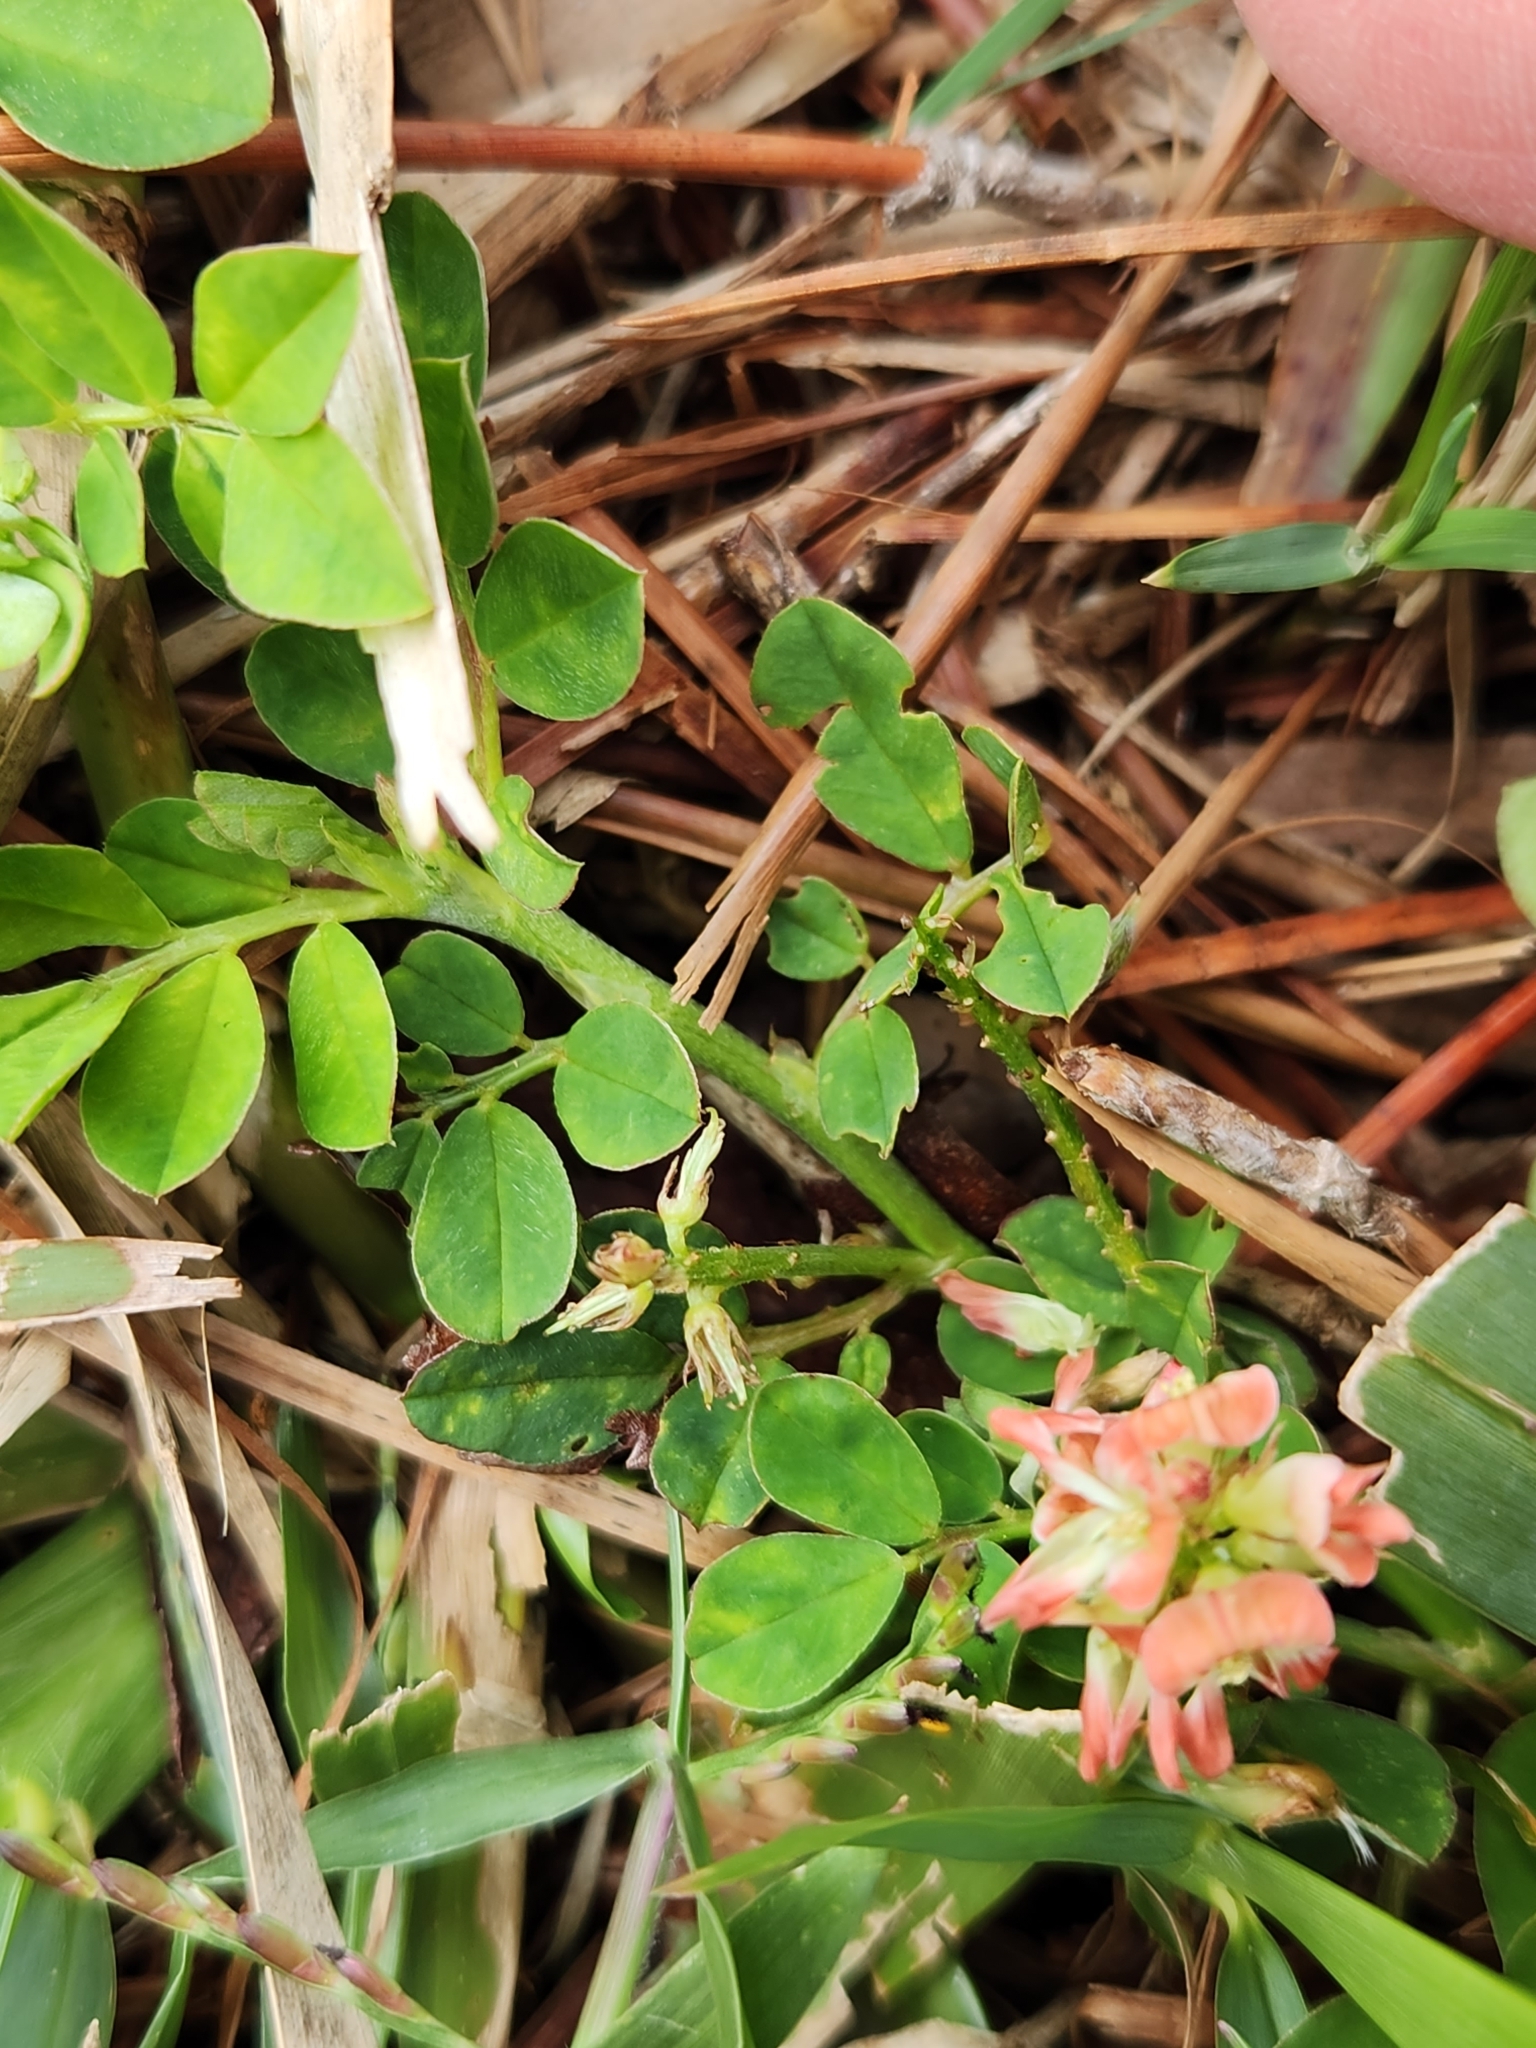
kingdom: Plantae
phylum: Tracheophyta
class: Magnoliopsida
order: Fabales
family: Fabaceae
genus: Indigofera
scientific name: Indigofera spicata
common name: Creeping indigo
